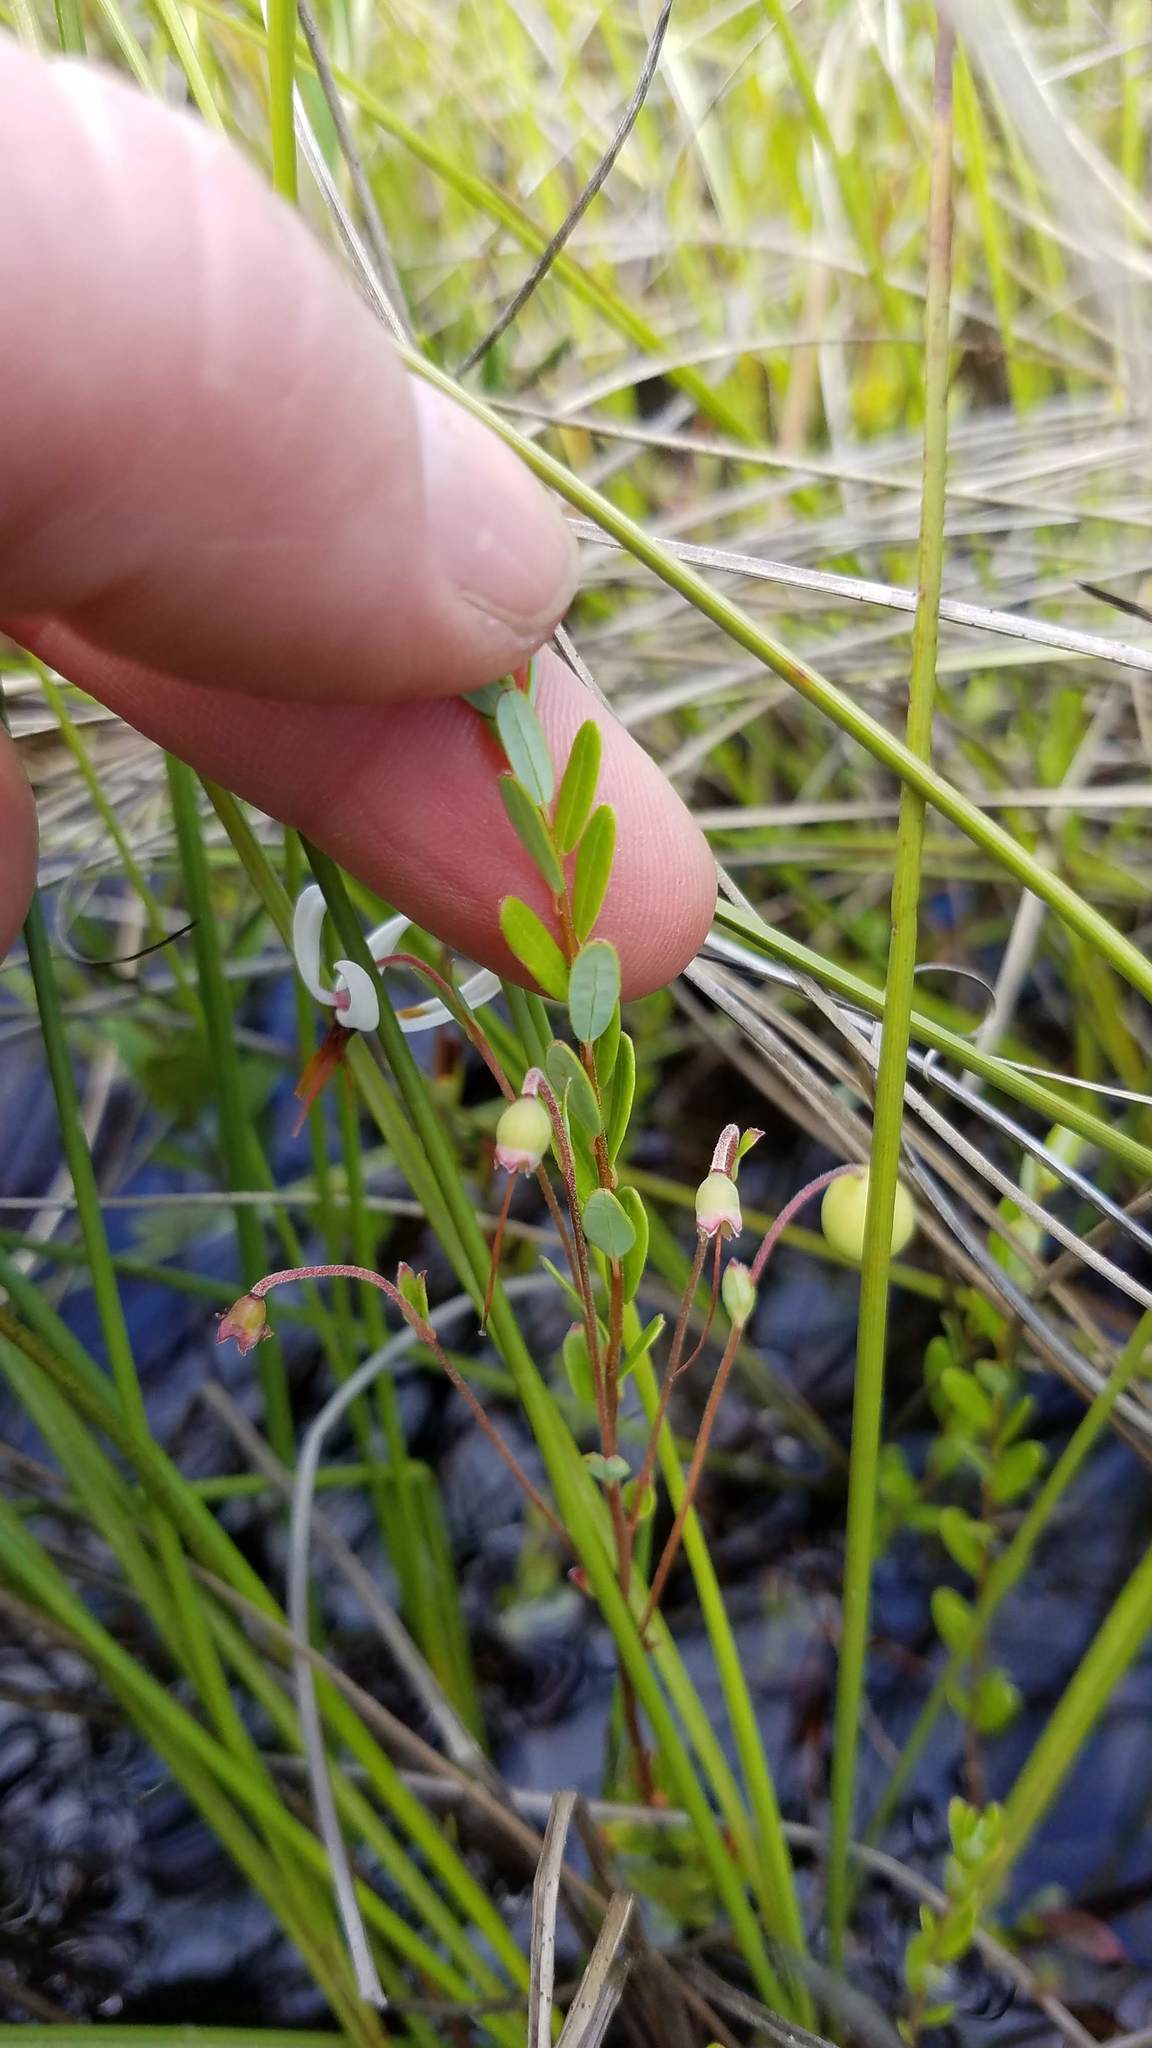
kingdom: Plantae
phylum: Tracheophyta
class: Magnoliopsida
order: Ericales
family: Ericaceae
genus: Vaccinium
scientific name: Vaccinium macrocarpon
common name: American cranberry
